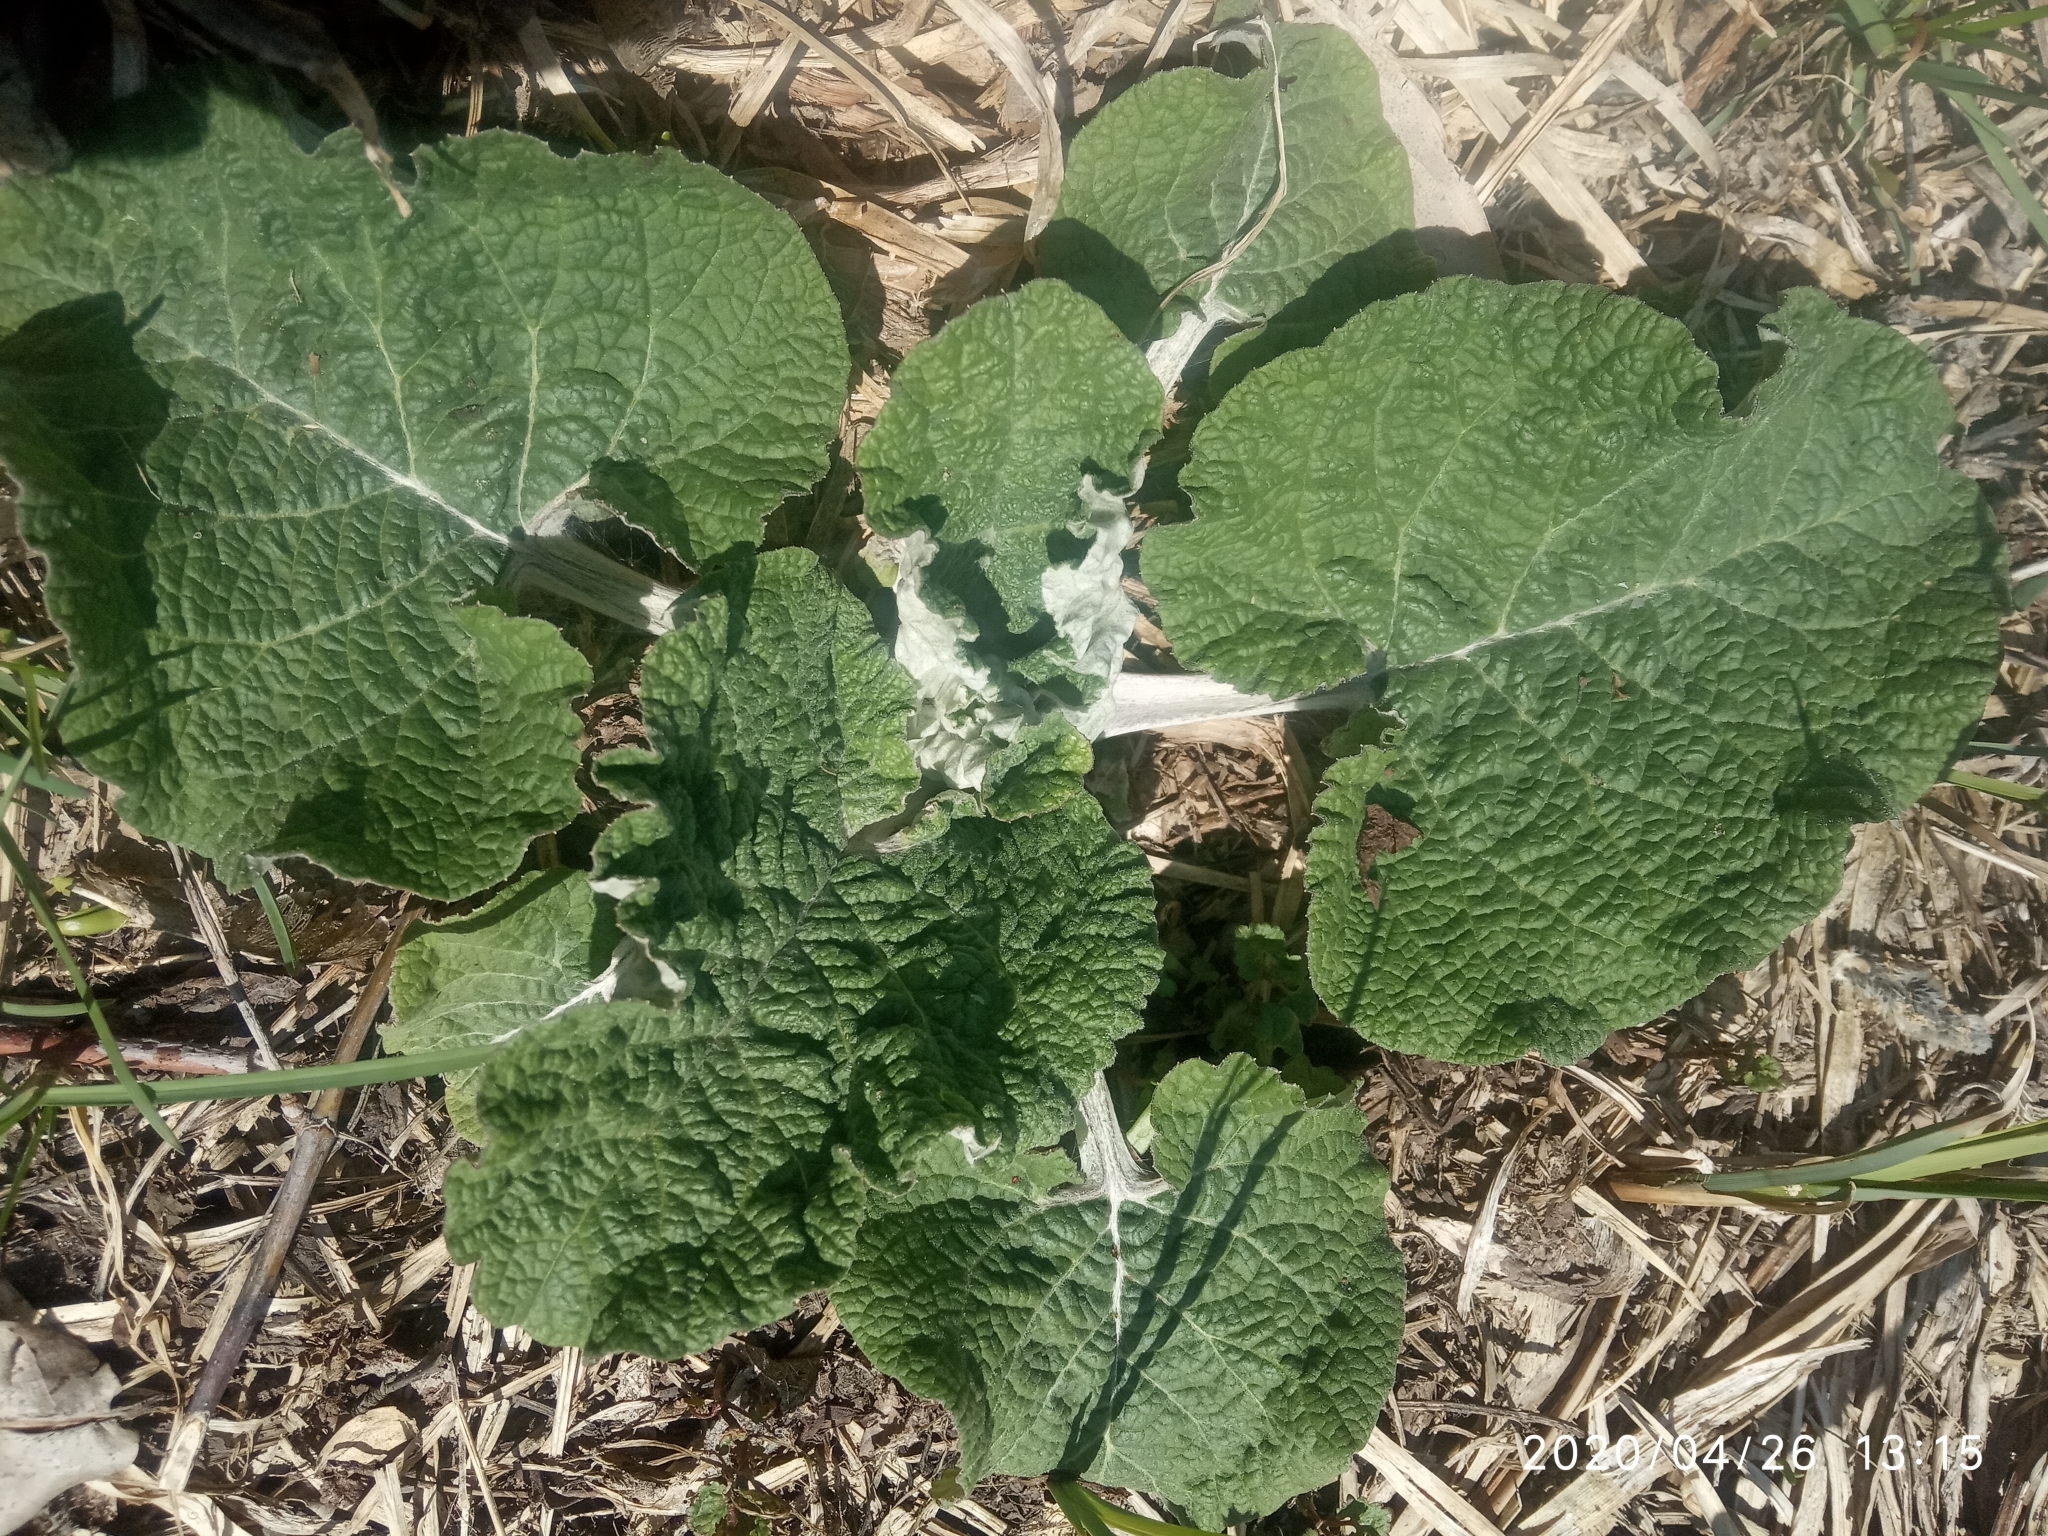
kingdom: Plantae
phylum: Tracheophyta
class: Magnoliopsida
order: Asterales
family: Asteraceae
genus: Arctium
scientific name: Arctium
